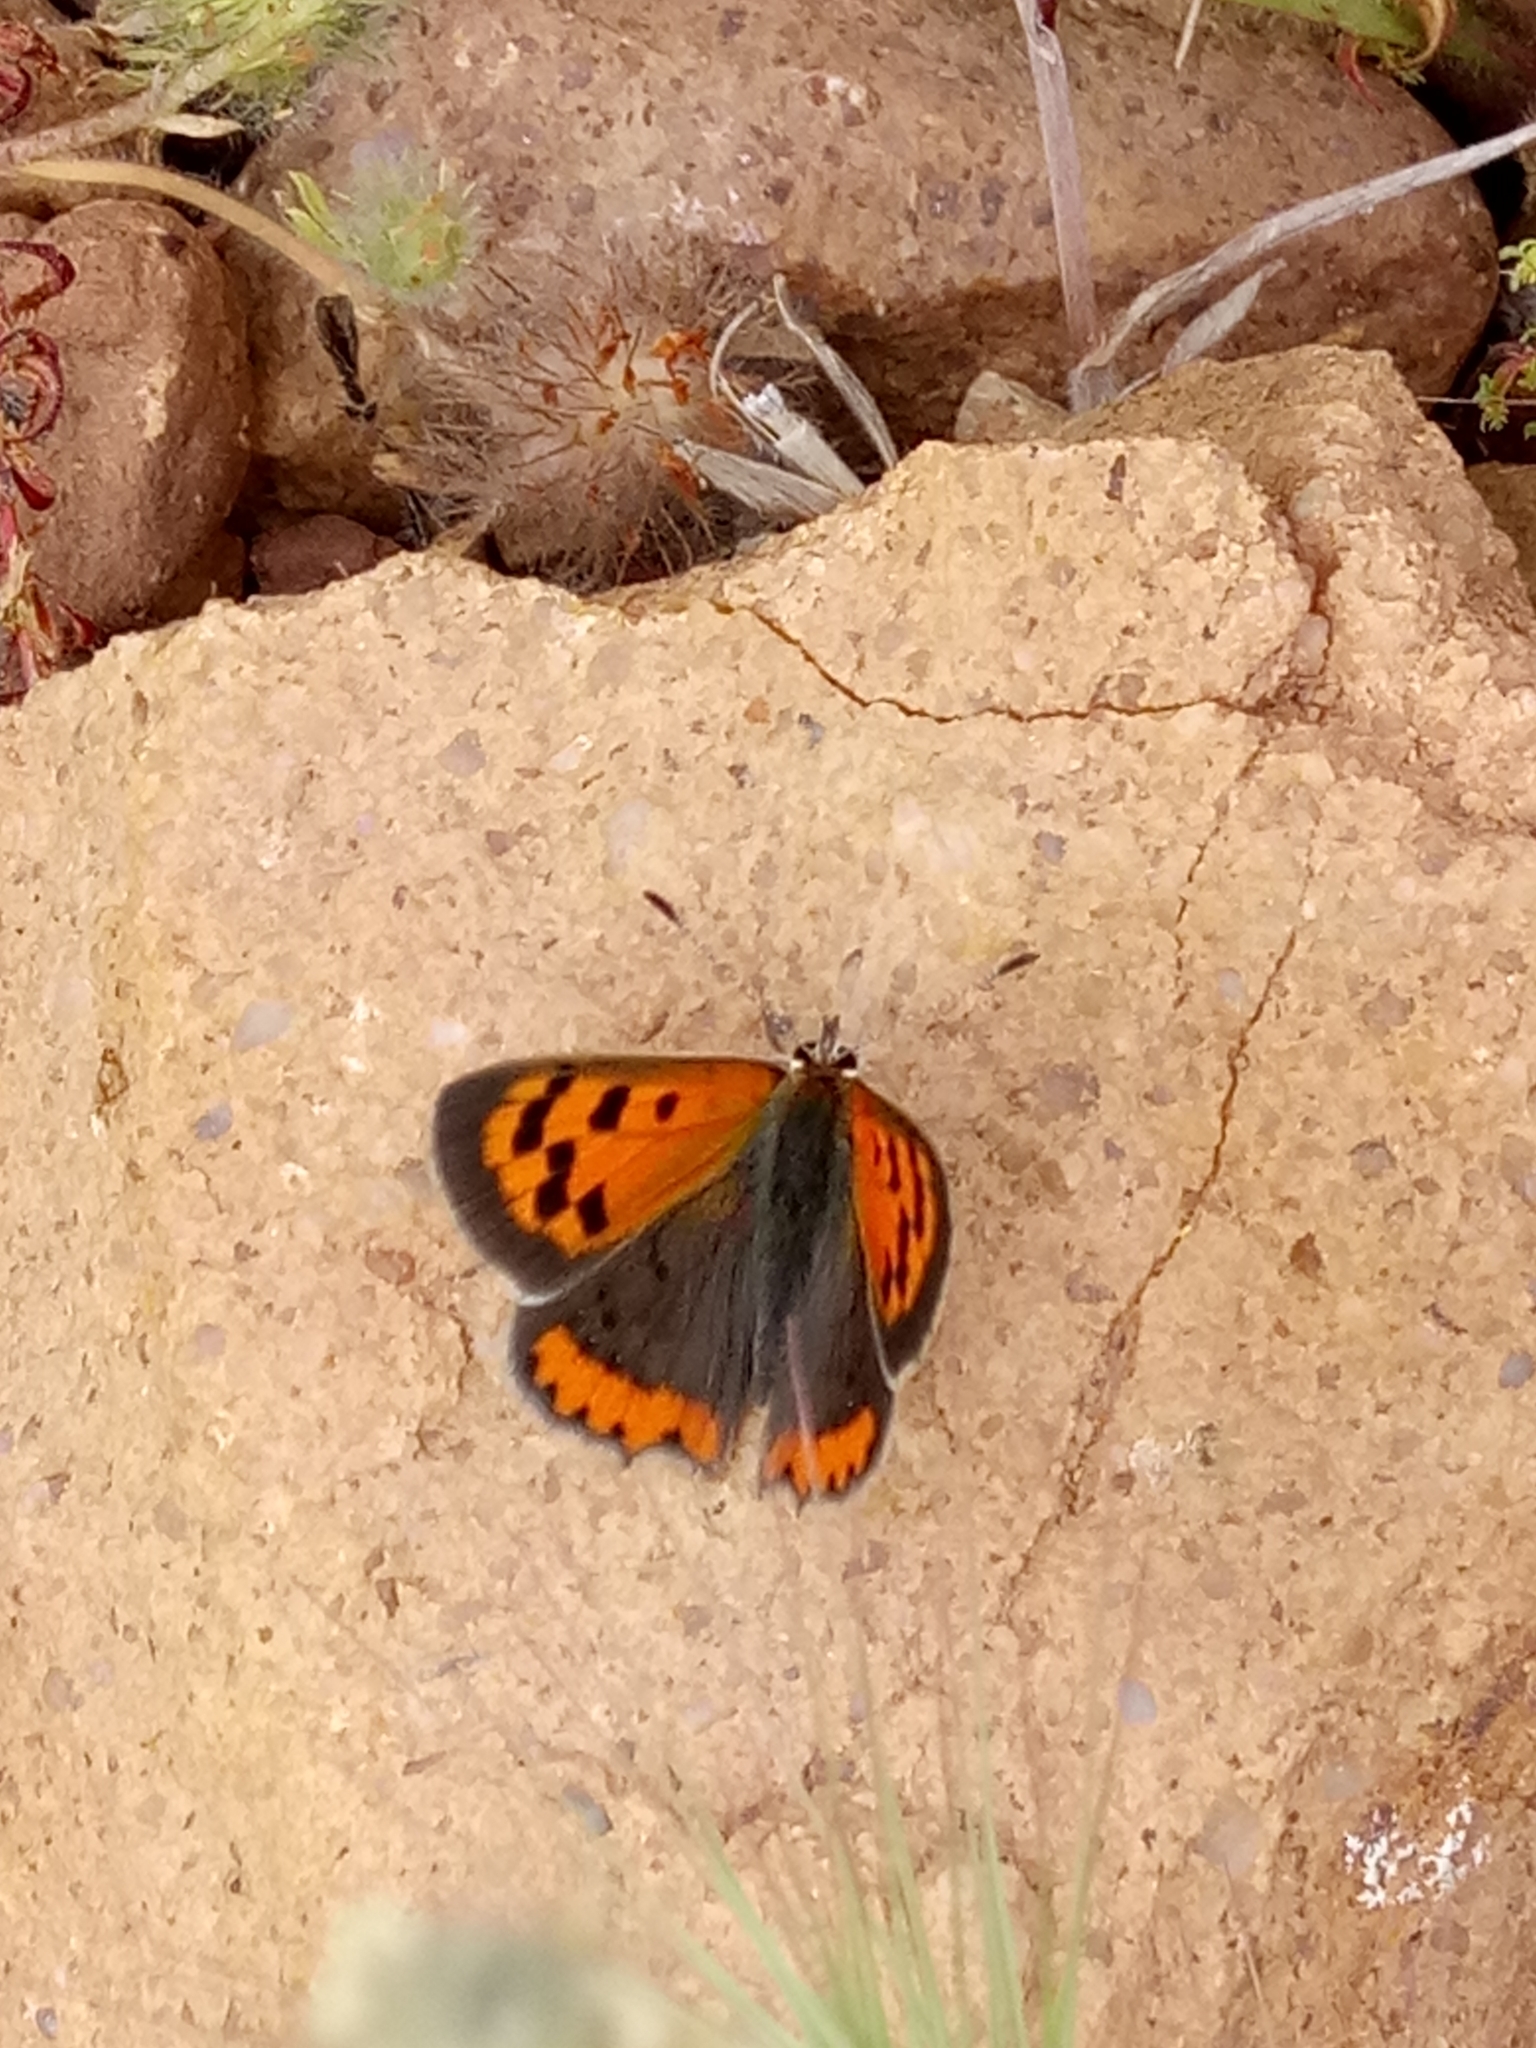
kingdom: Animalia
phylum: Arthropoda
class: Insecta
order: Lepidoptera
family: Lycaenidae
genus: Lycaena
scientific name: Lycaena phlaeas
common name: Small copper
